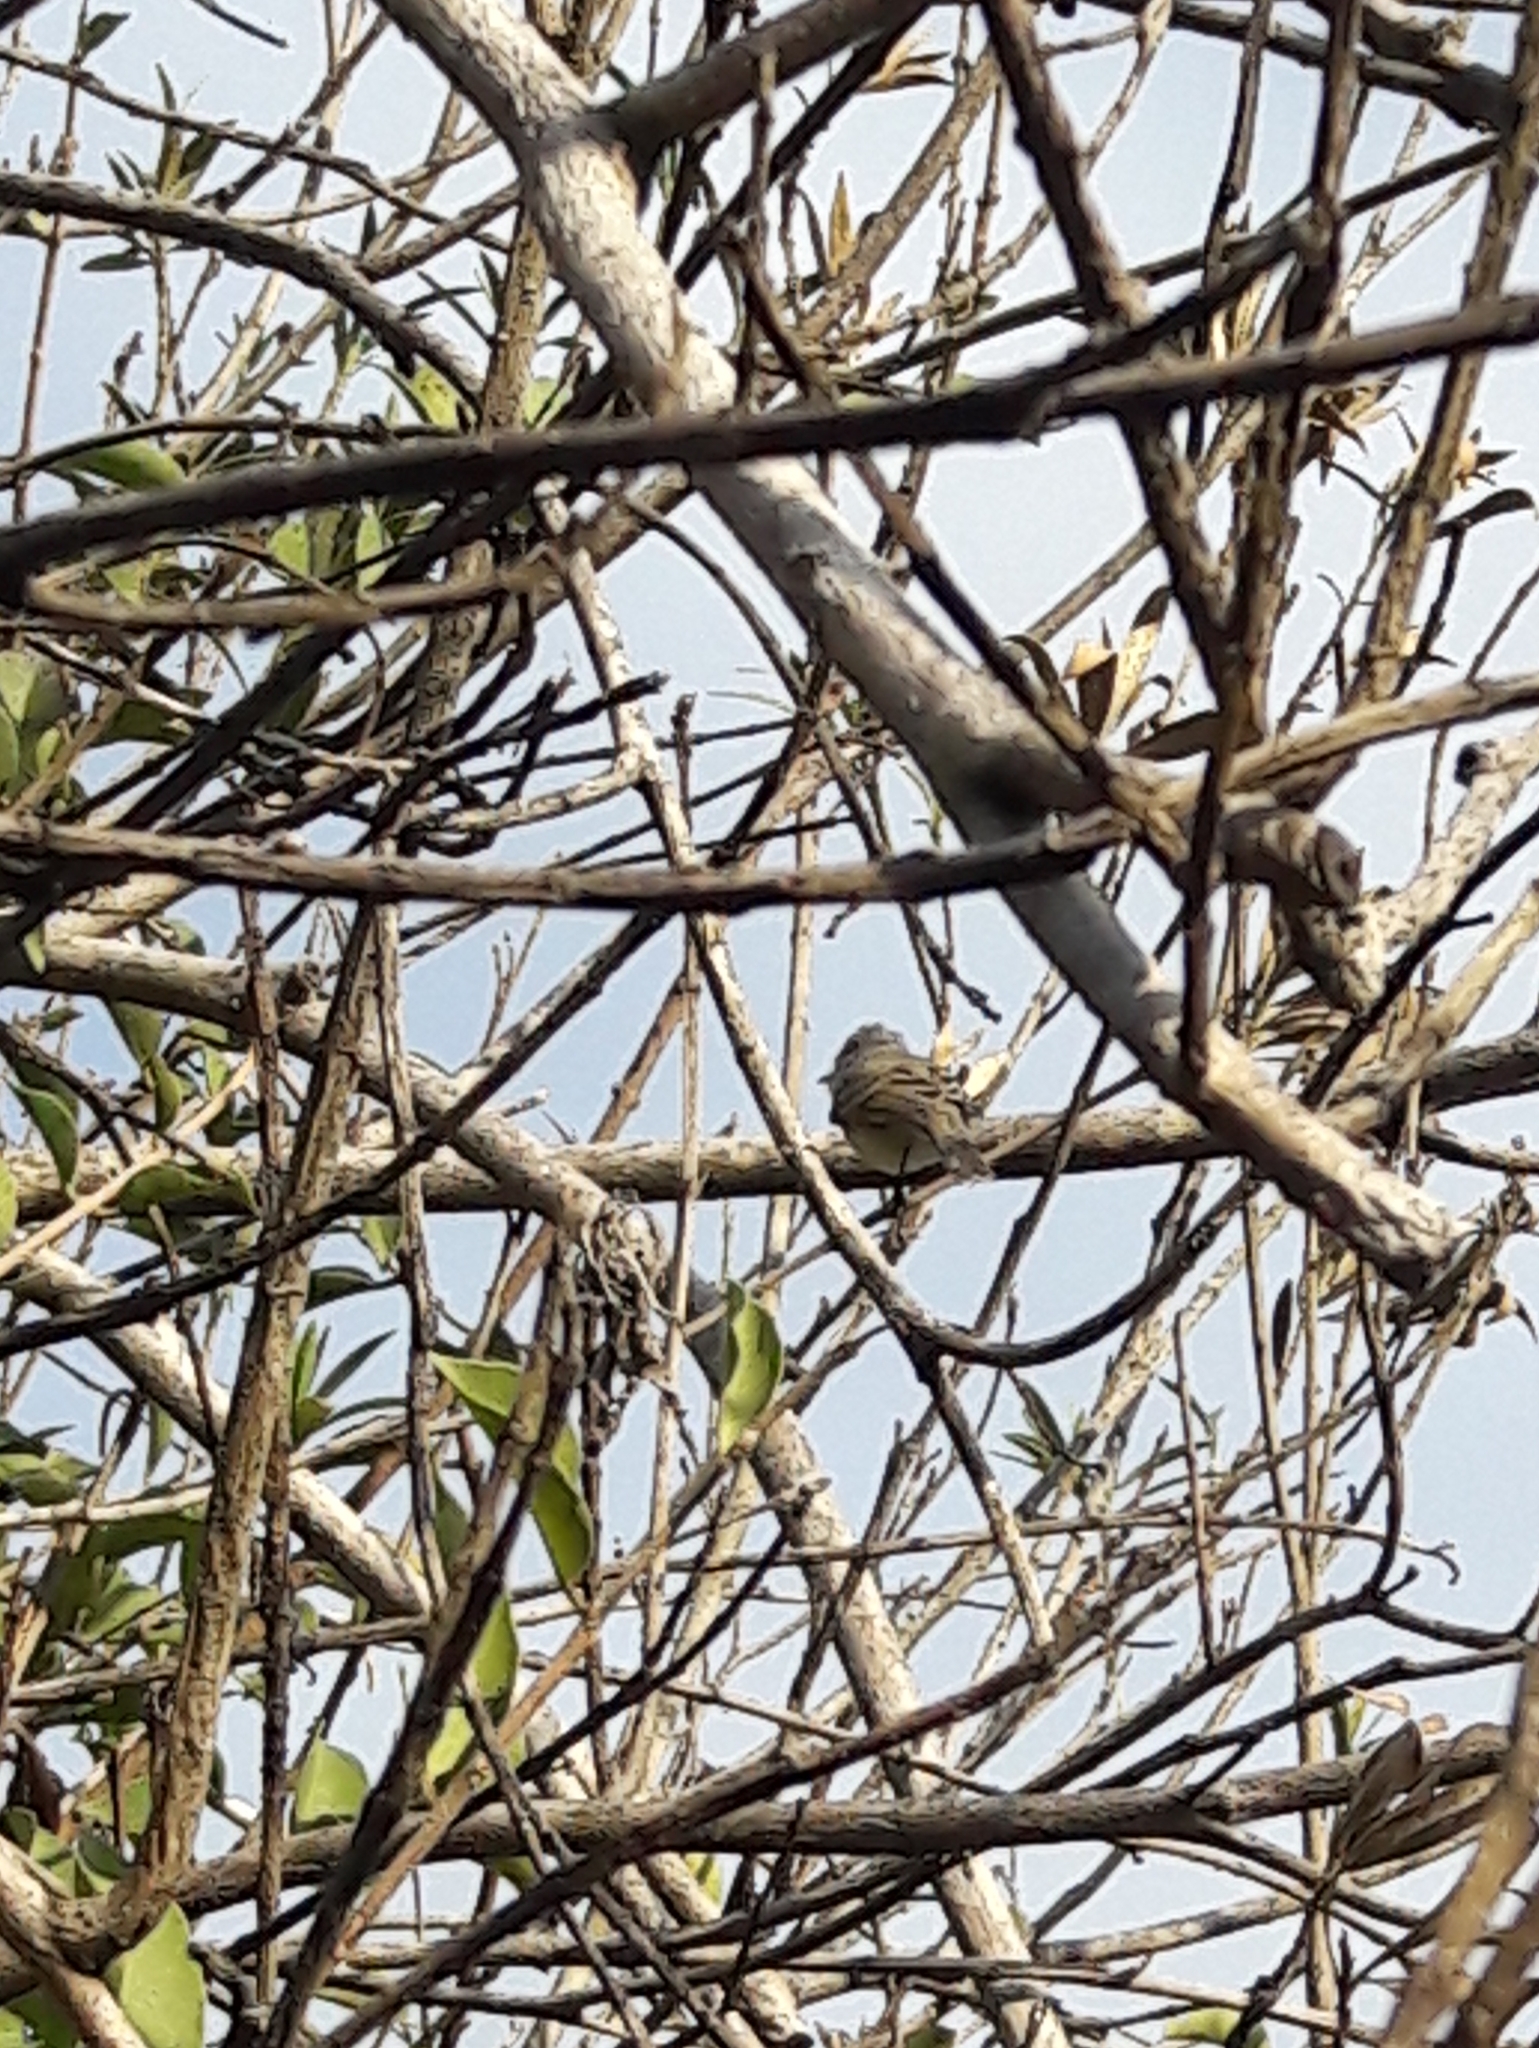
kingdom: Animalia
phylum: Chordata
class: Aves
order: Passeriformes
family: Tyrannidae
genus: Camptostoma
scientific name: Camptostoma obsoletum
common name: Southern beardless-tyrannulet
